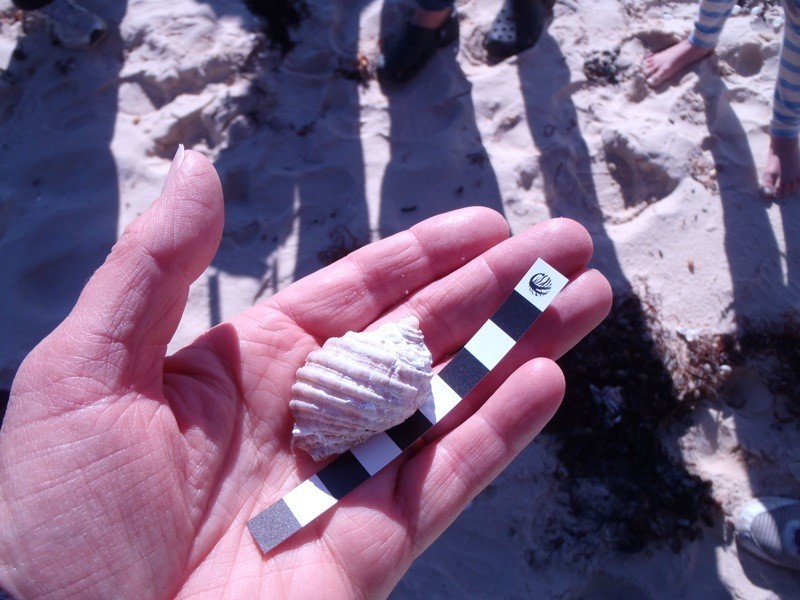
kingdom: Animalia
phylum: Mollusca
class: Gastropoda
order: Neogastropoda
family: Muricidae
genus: Dicathais
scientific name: Dicathais orbita
